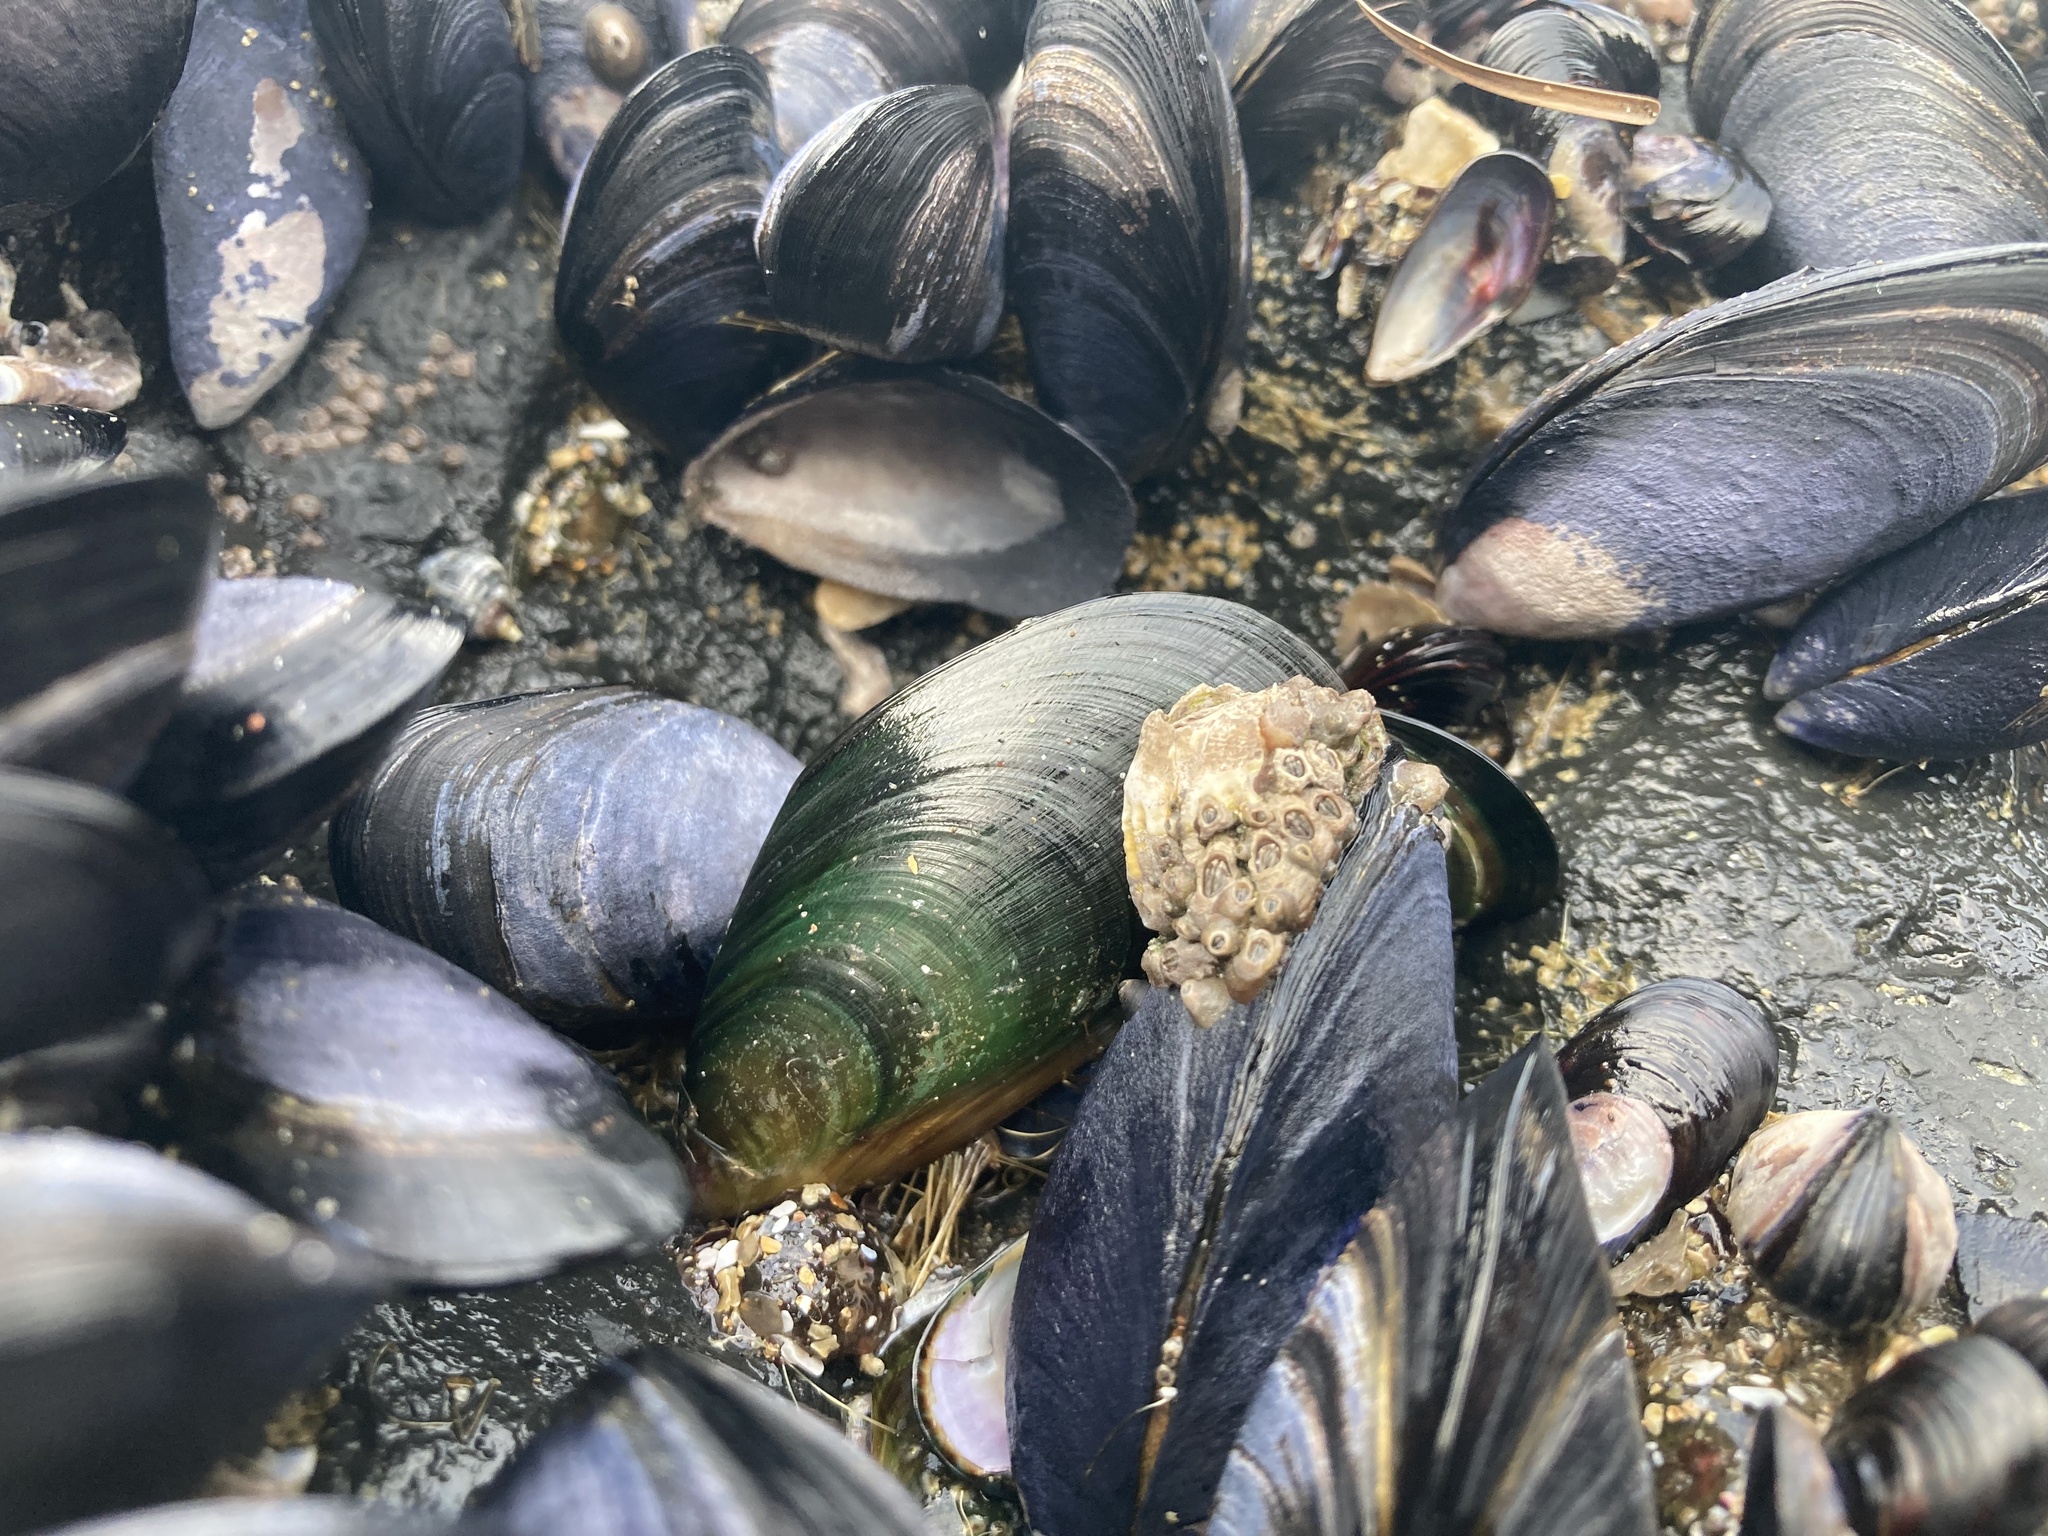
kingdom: Animalia
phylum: Mollusca
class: Bivalvia
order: Mytilida
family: Mytilidae
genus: Perna
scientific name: Perna canaliculus
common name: New zealand greenshelltm
